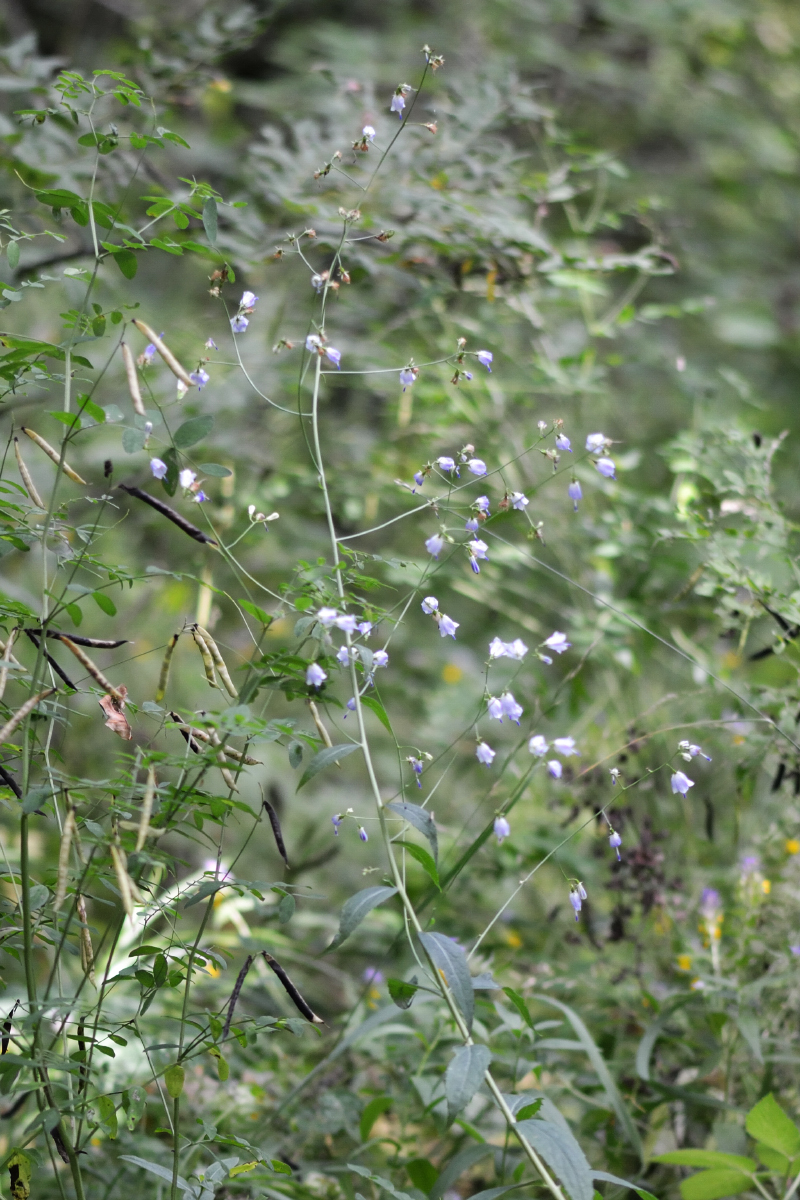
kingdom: Plantae
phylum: Tracheophyta
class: Magnoliopsida
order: Asterales
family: Campanulaceae
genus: Adenophora
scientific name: Adenophora liliifolia
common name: Lilyleaf ladybells
